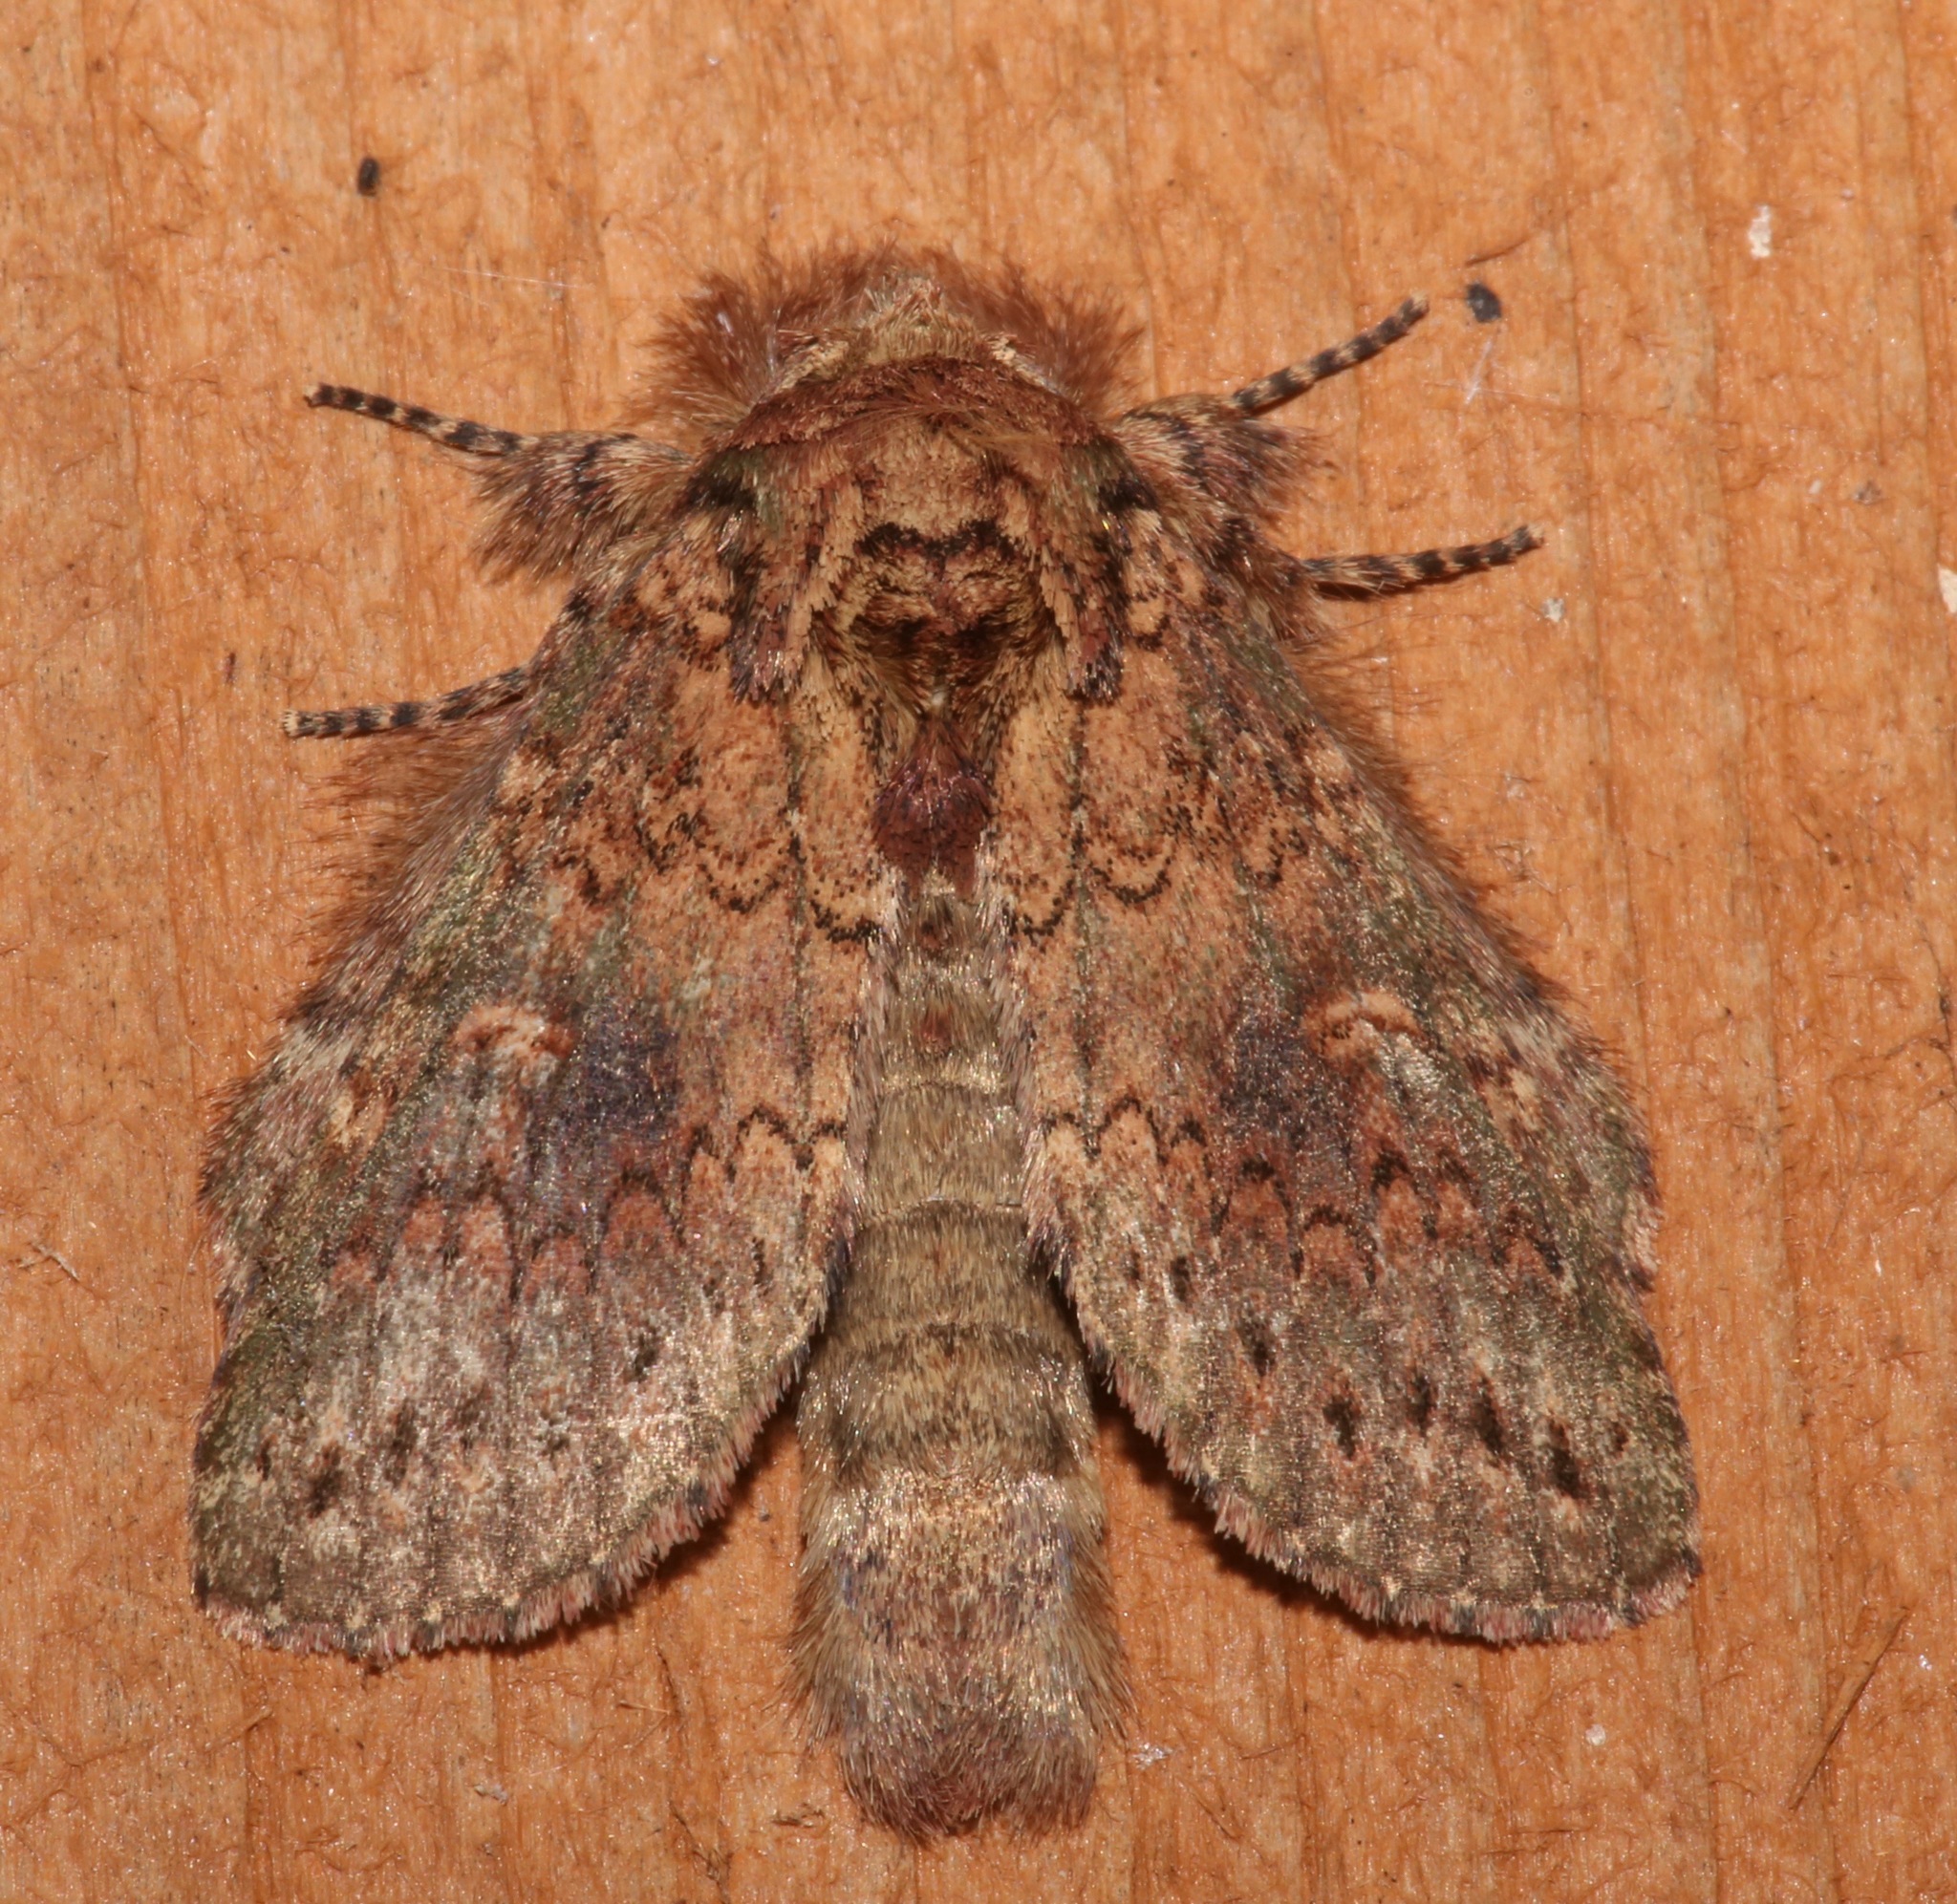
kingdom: Animalia
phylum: Arthropoda
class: Insecta
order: Lepidoptera
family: Notodontidae
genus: Disphragis
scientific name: Disphragis Cecrita biundata
